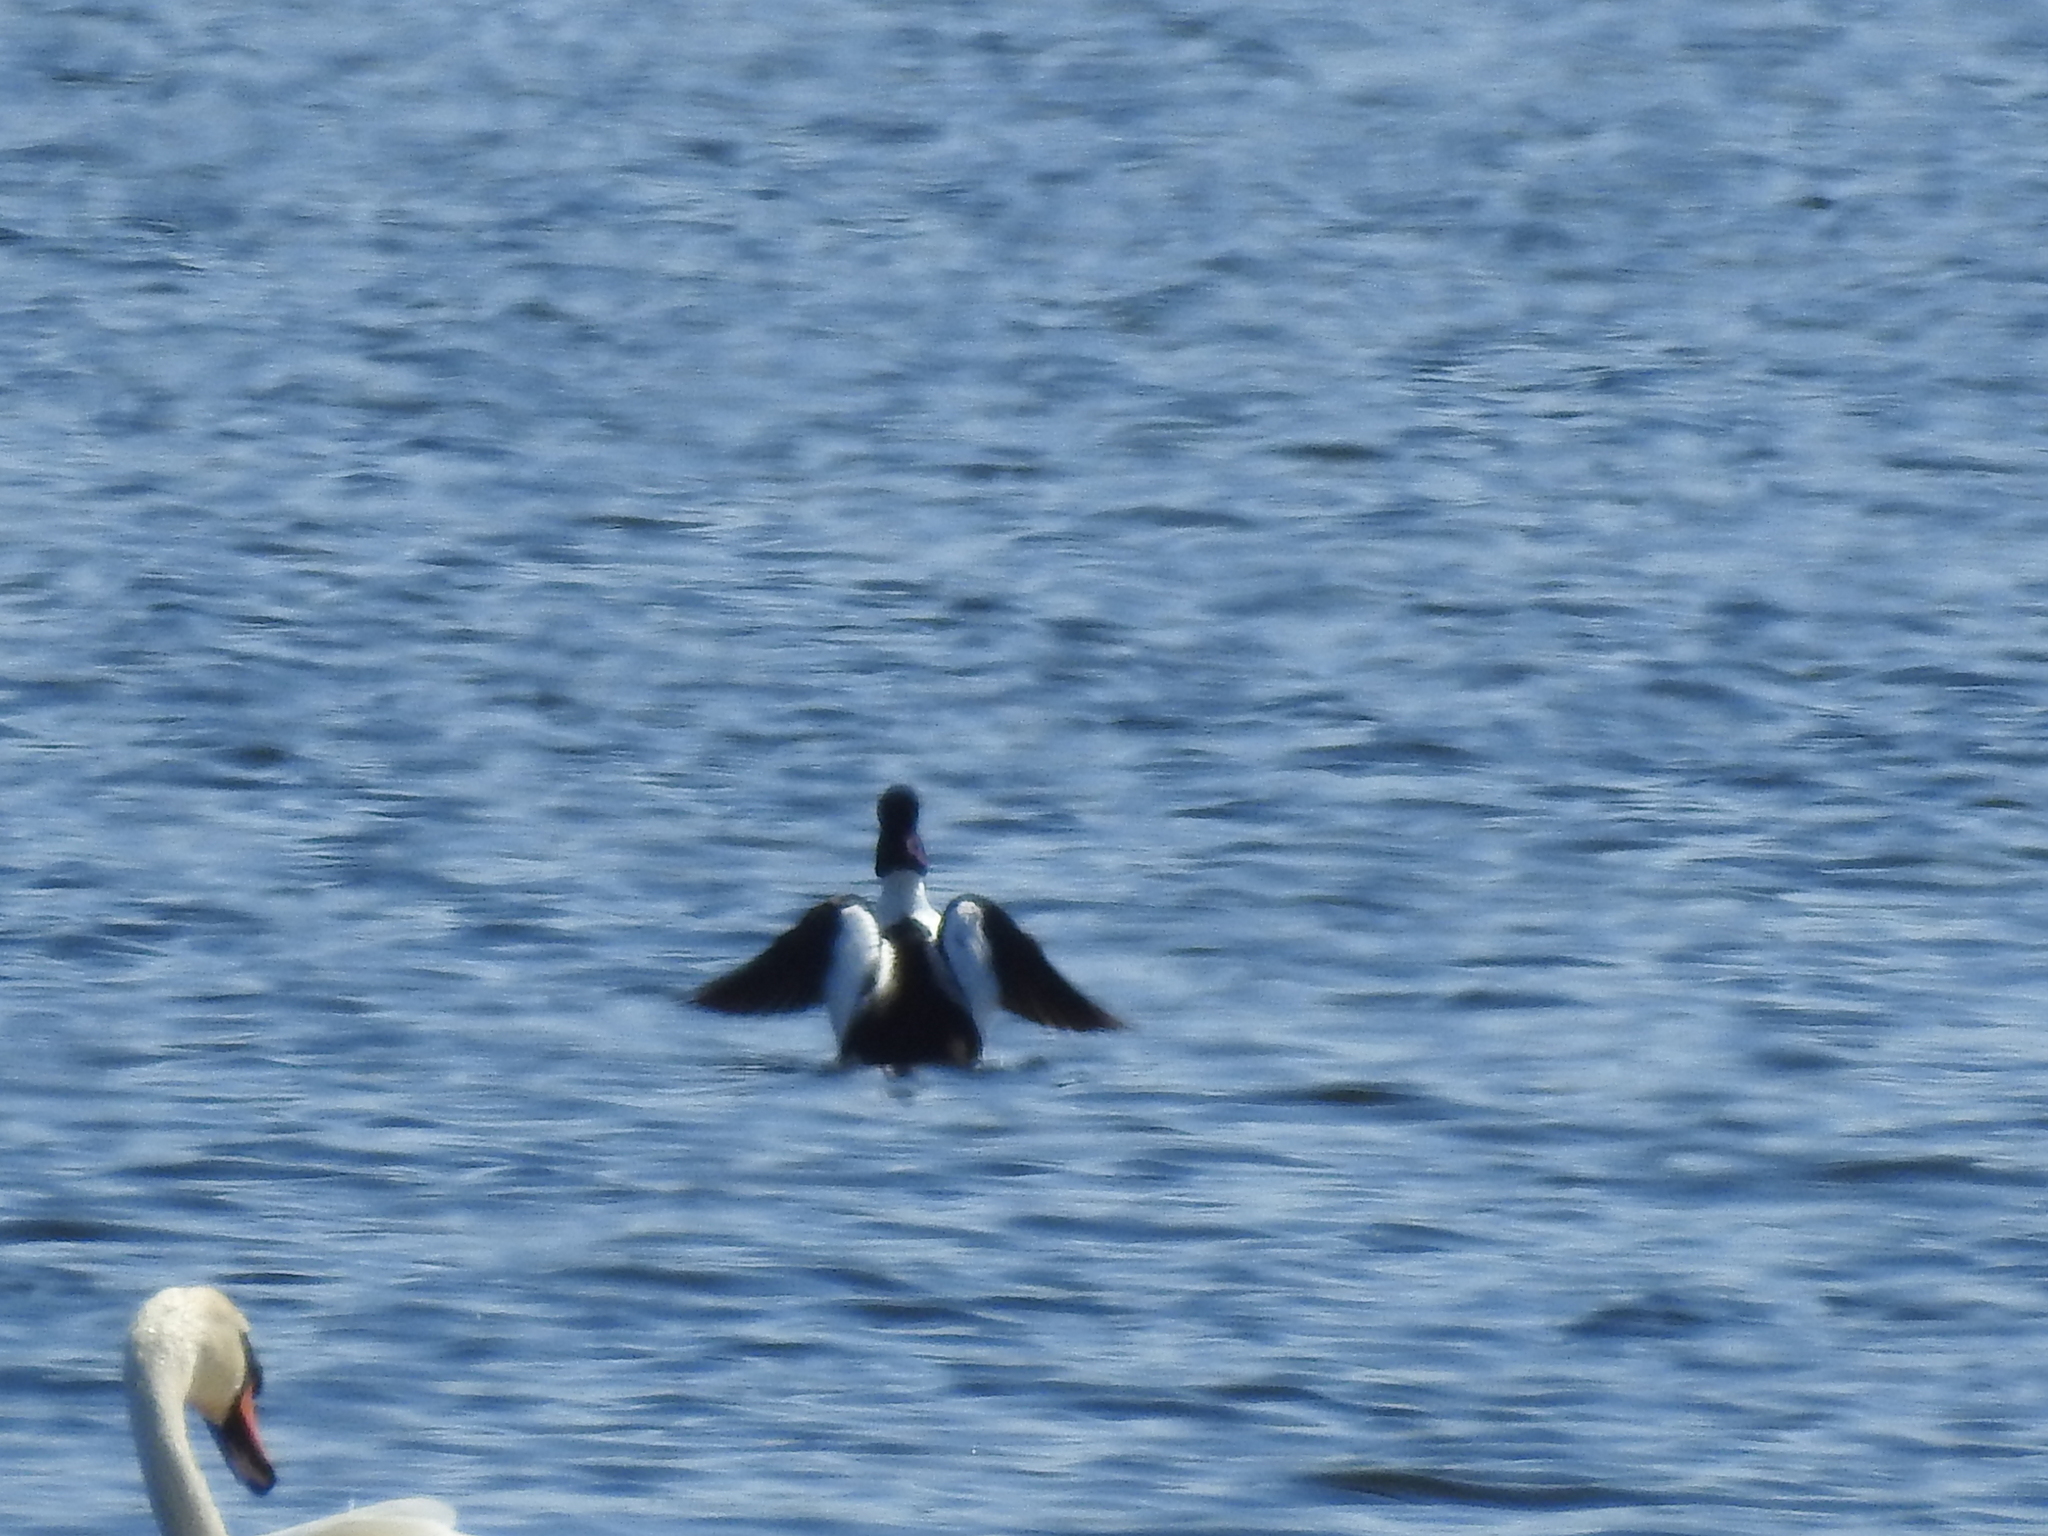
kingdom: Animalia
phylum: Chordata
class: Aves
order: Anseriformes
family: Anatidae
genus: Bucephala
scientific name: Bucephala clangula
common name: Common goldeneye
